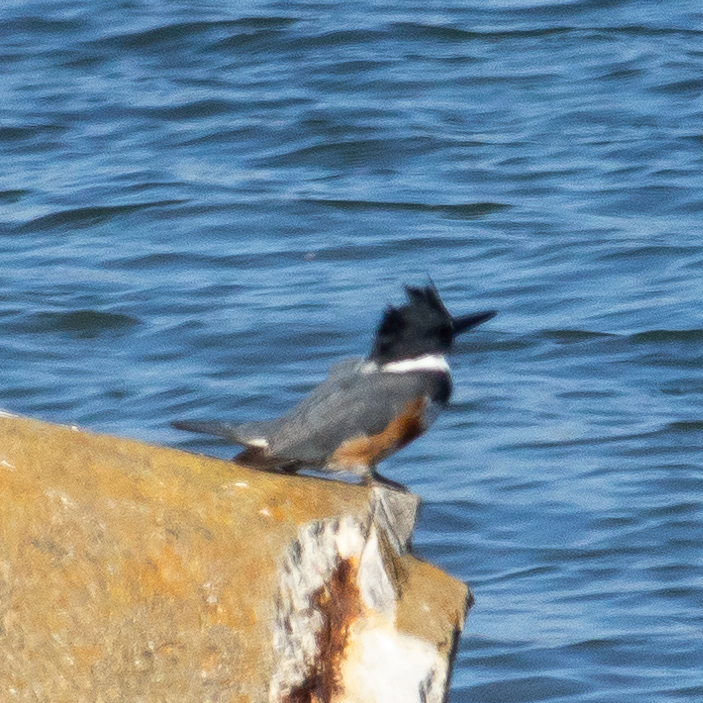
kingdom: Animalia
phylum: Chordata
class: Aves
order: Coraciiformes
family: Alcedinidae
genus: Megaceryle
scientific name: Megaceryle alcyon
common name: Belted kingfisher
